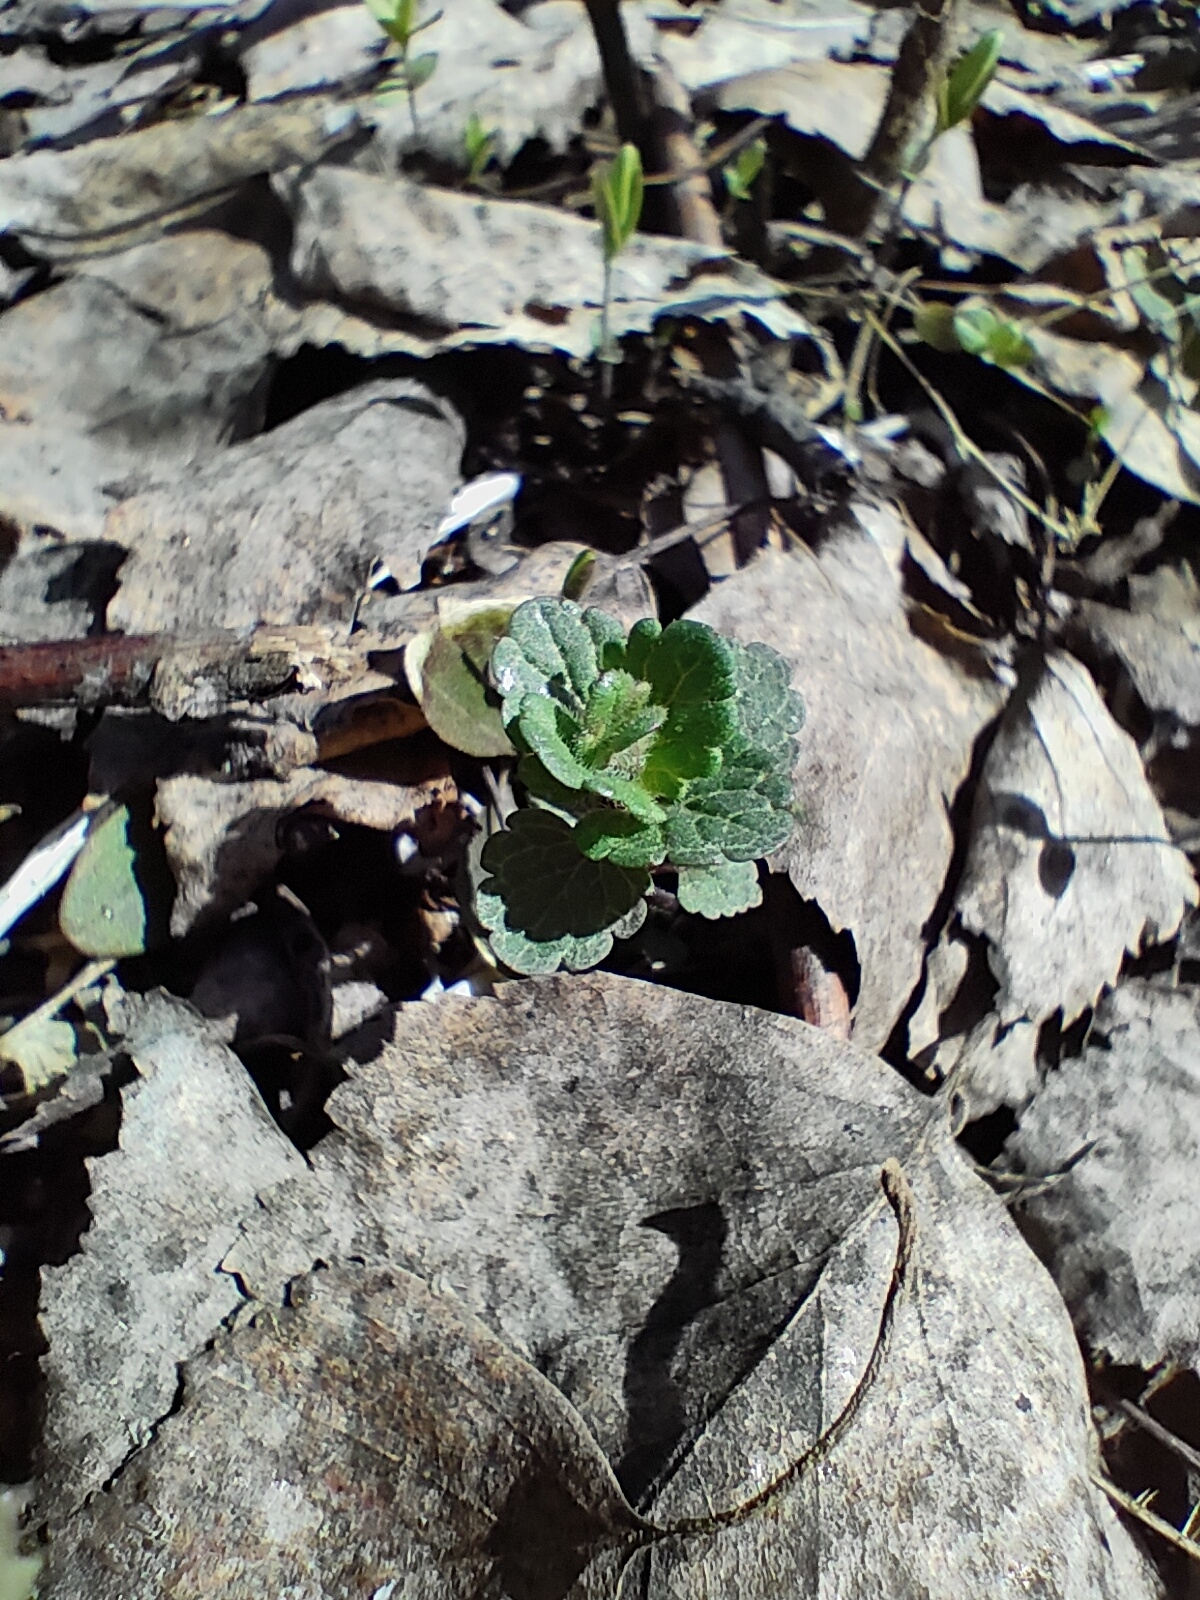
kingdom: Plantae
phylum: Tracheophyta
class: Magnoliopsida
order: Lamiales
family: Lamiaceae
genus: Glechoma
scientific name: Glechoma hederacea
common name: Ground ivy
